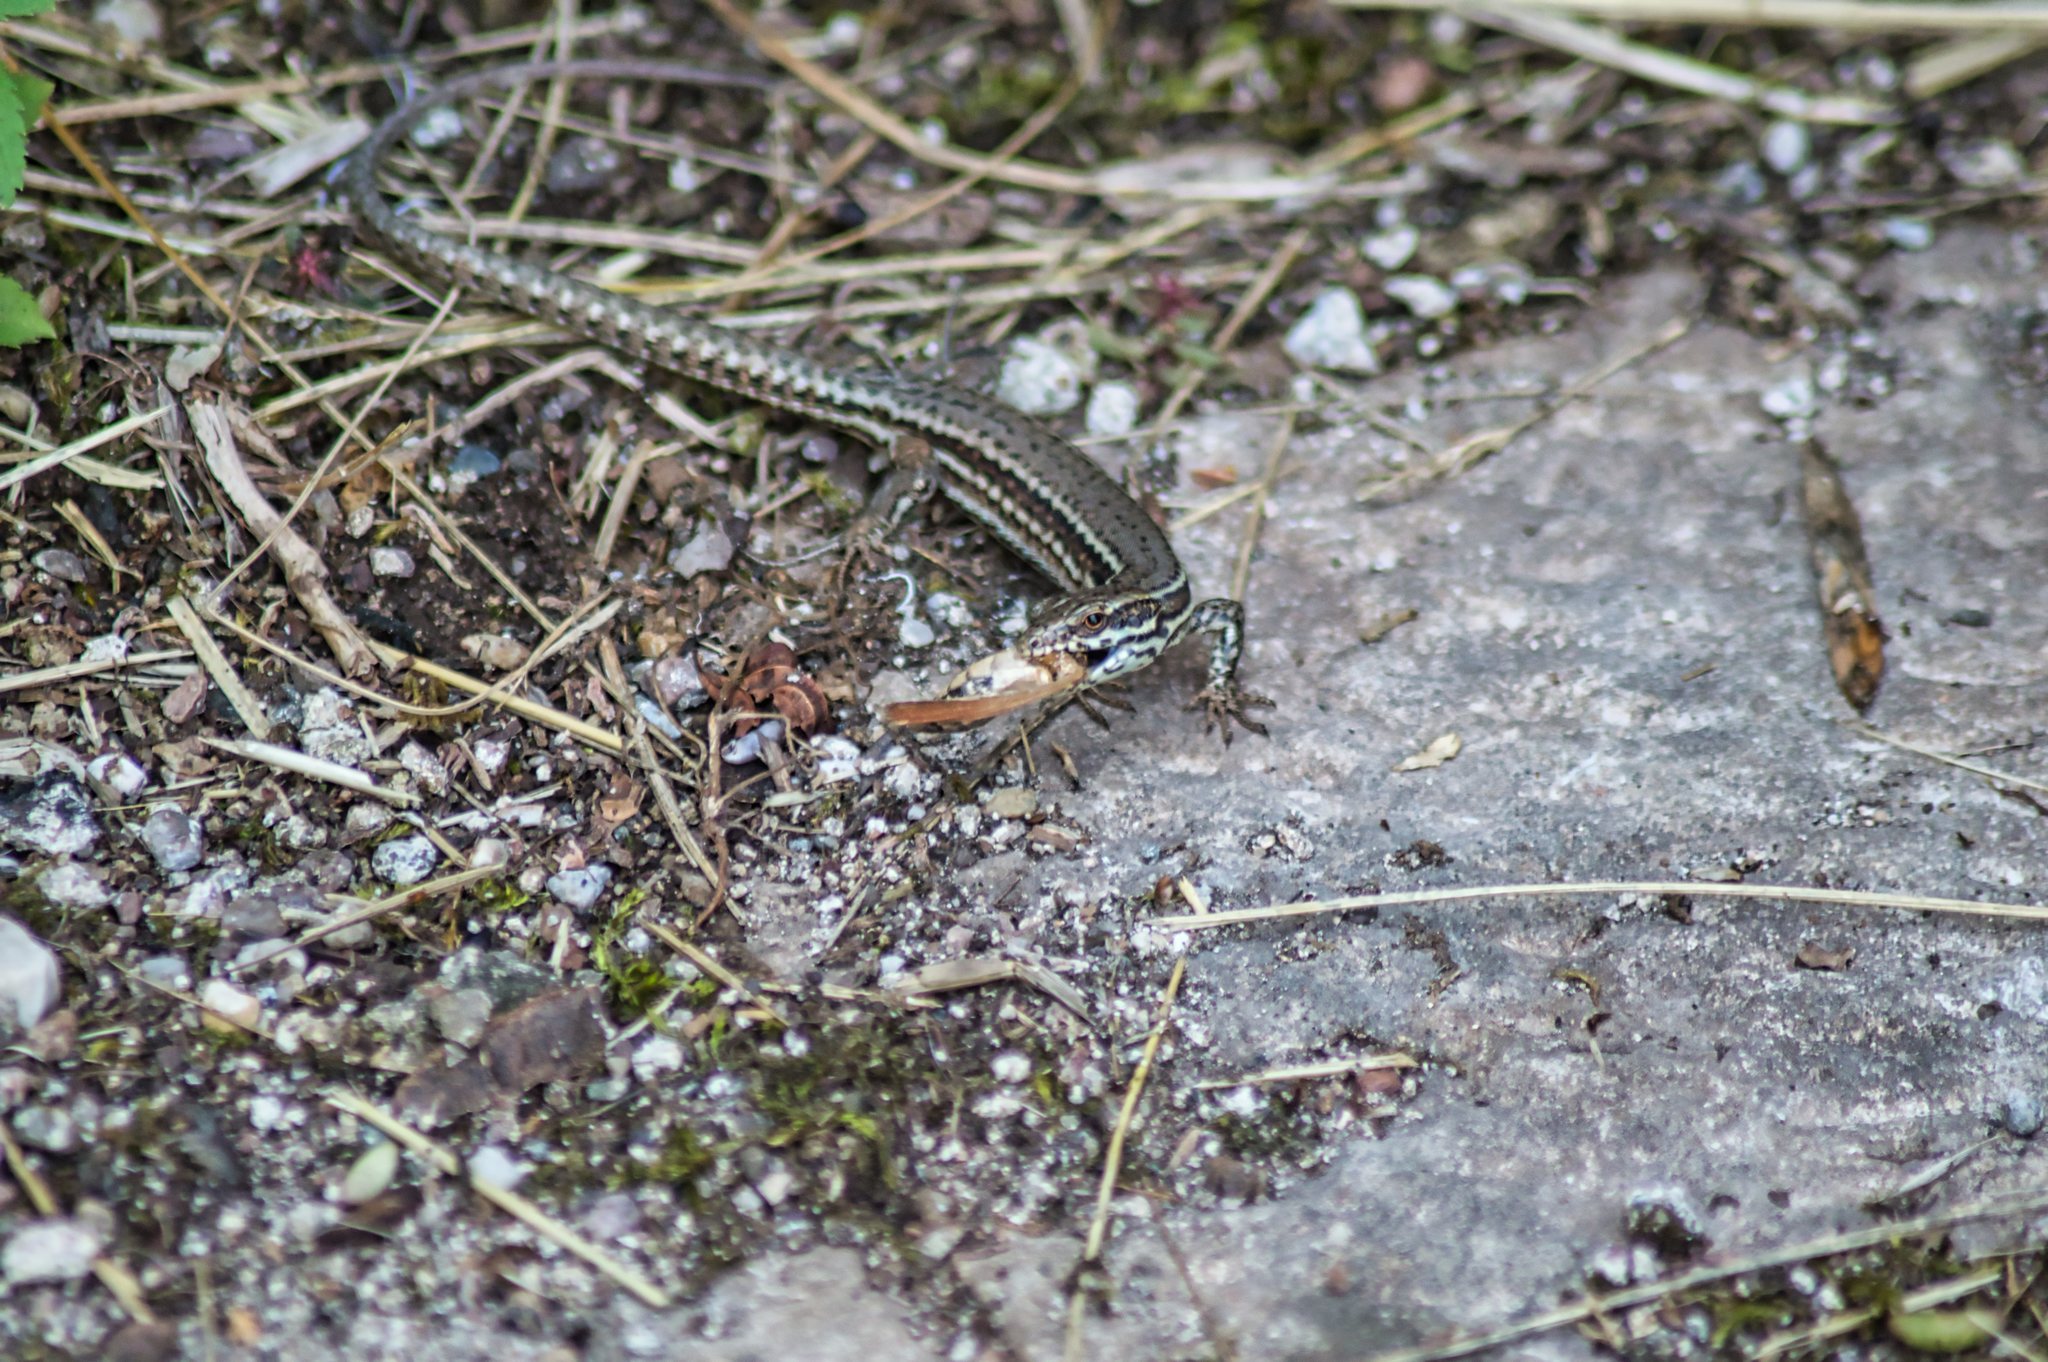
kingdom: Animalia
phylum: Chordata
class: Squamata
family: Lacertidae
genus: Podarcis
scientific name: Podarcis muralis
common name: Common wall lizard
